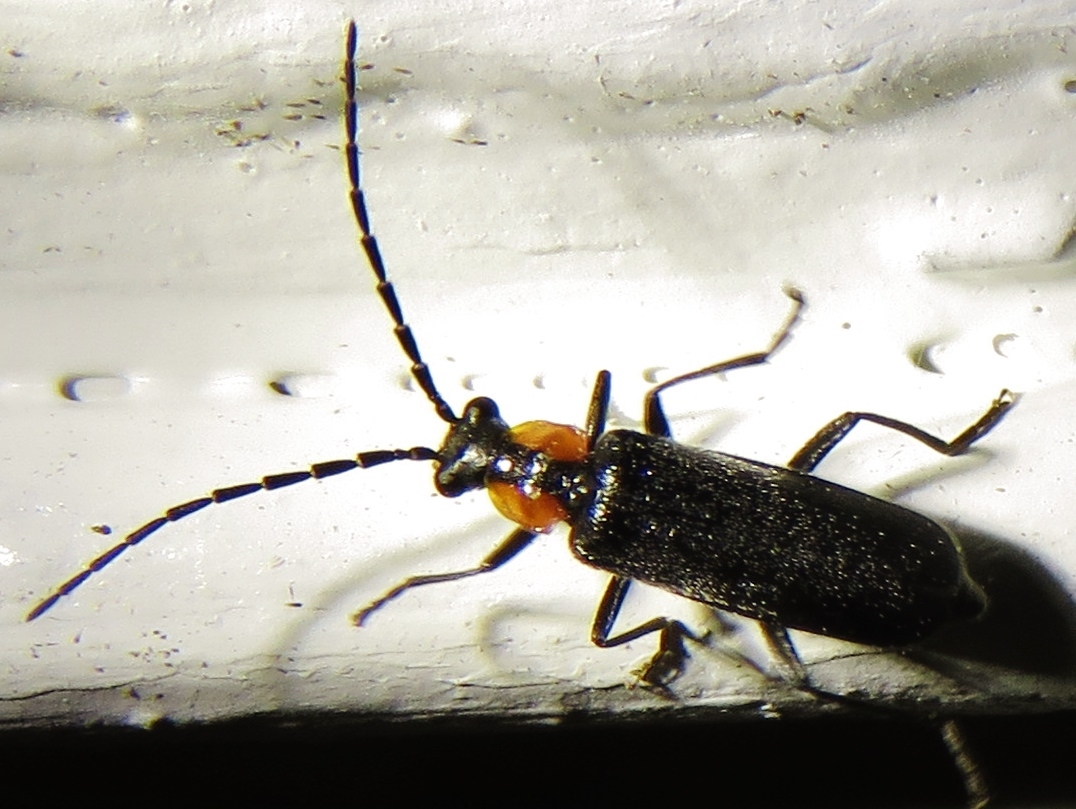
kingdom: Animalia
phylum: Arthropoda
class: Insecta
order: Coleoptera
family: Cantharidae
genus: Rhagonycha
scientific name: Rhagonycha lineola
